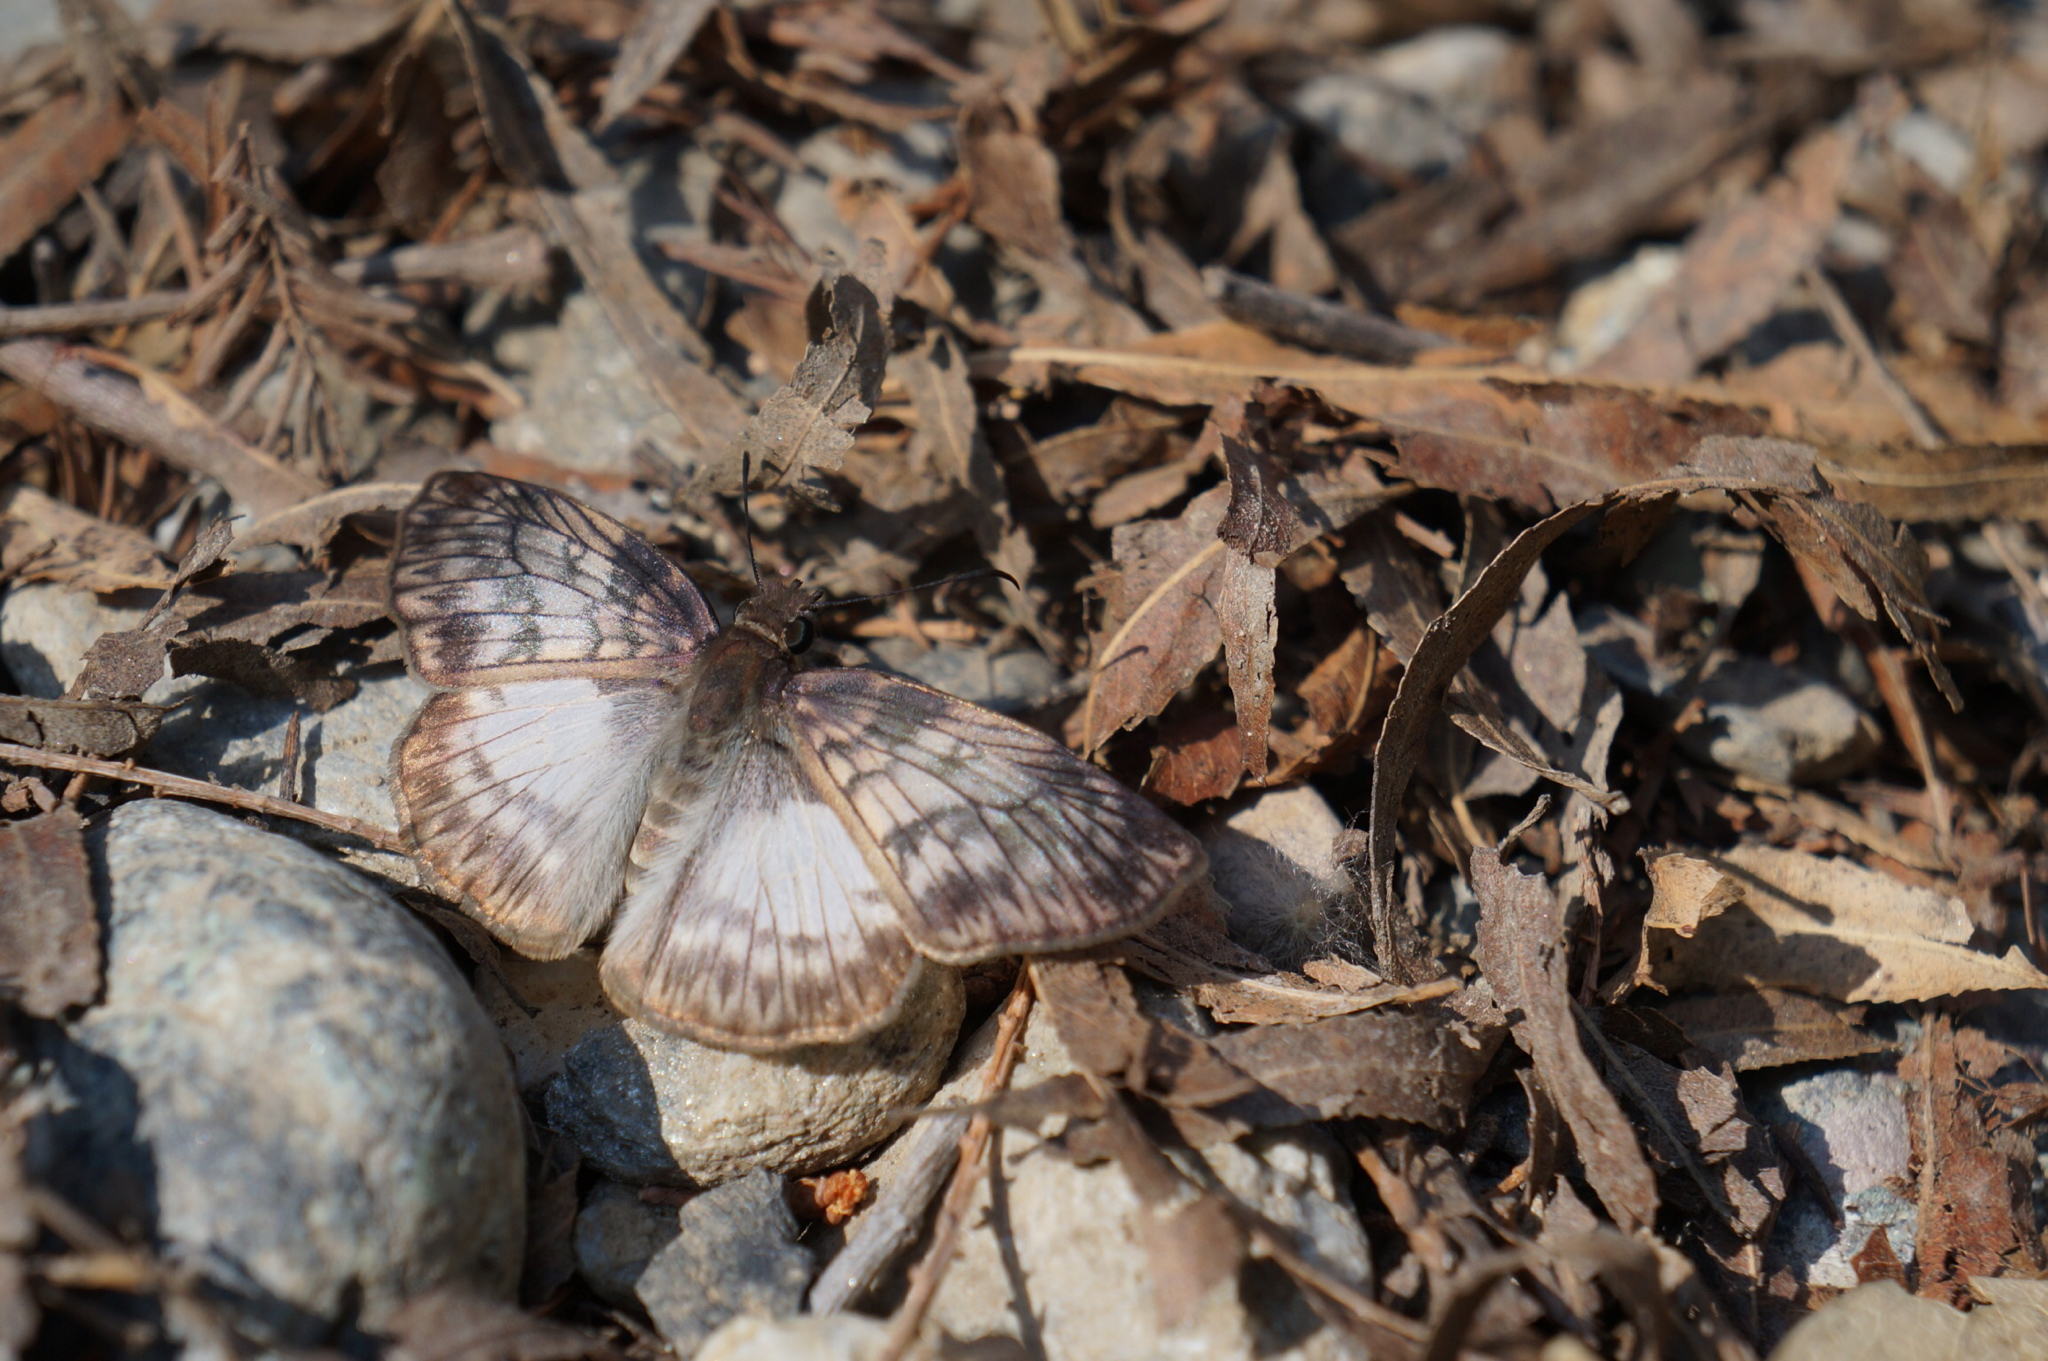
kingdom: Animalia
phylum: Arthropoda
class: Insecta
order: Lepidoptera
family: Hesperiidae
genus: Mylon
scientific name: Mylon maimon
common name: Common mylon
